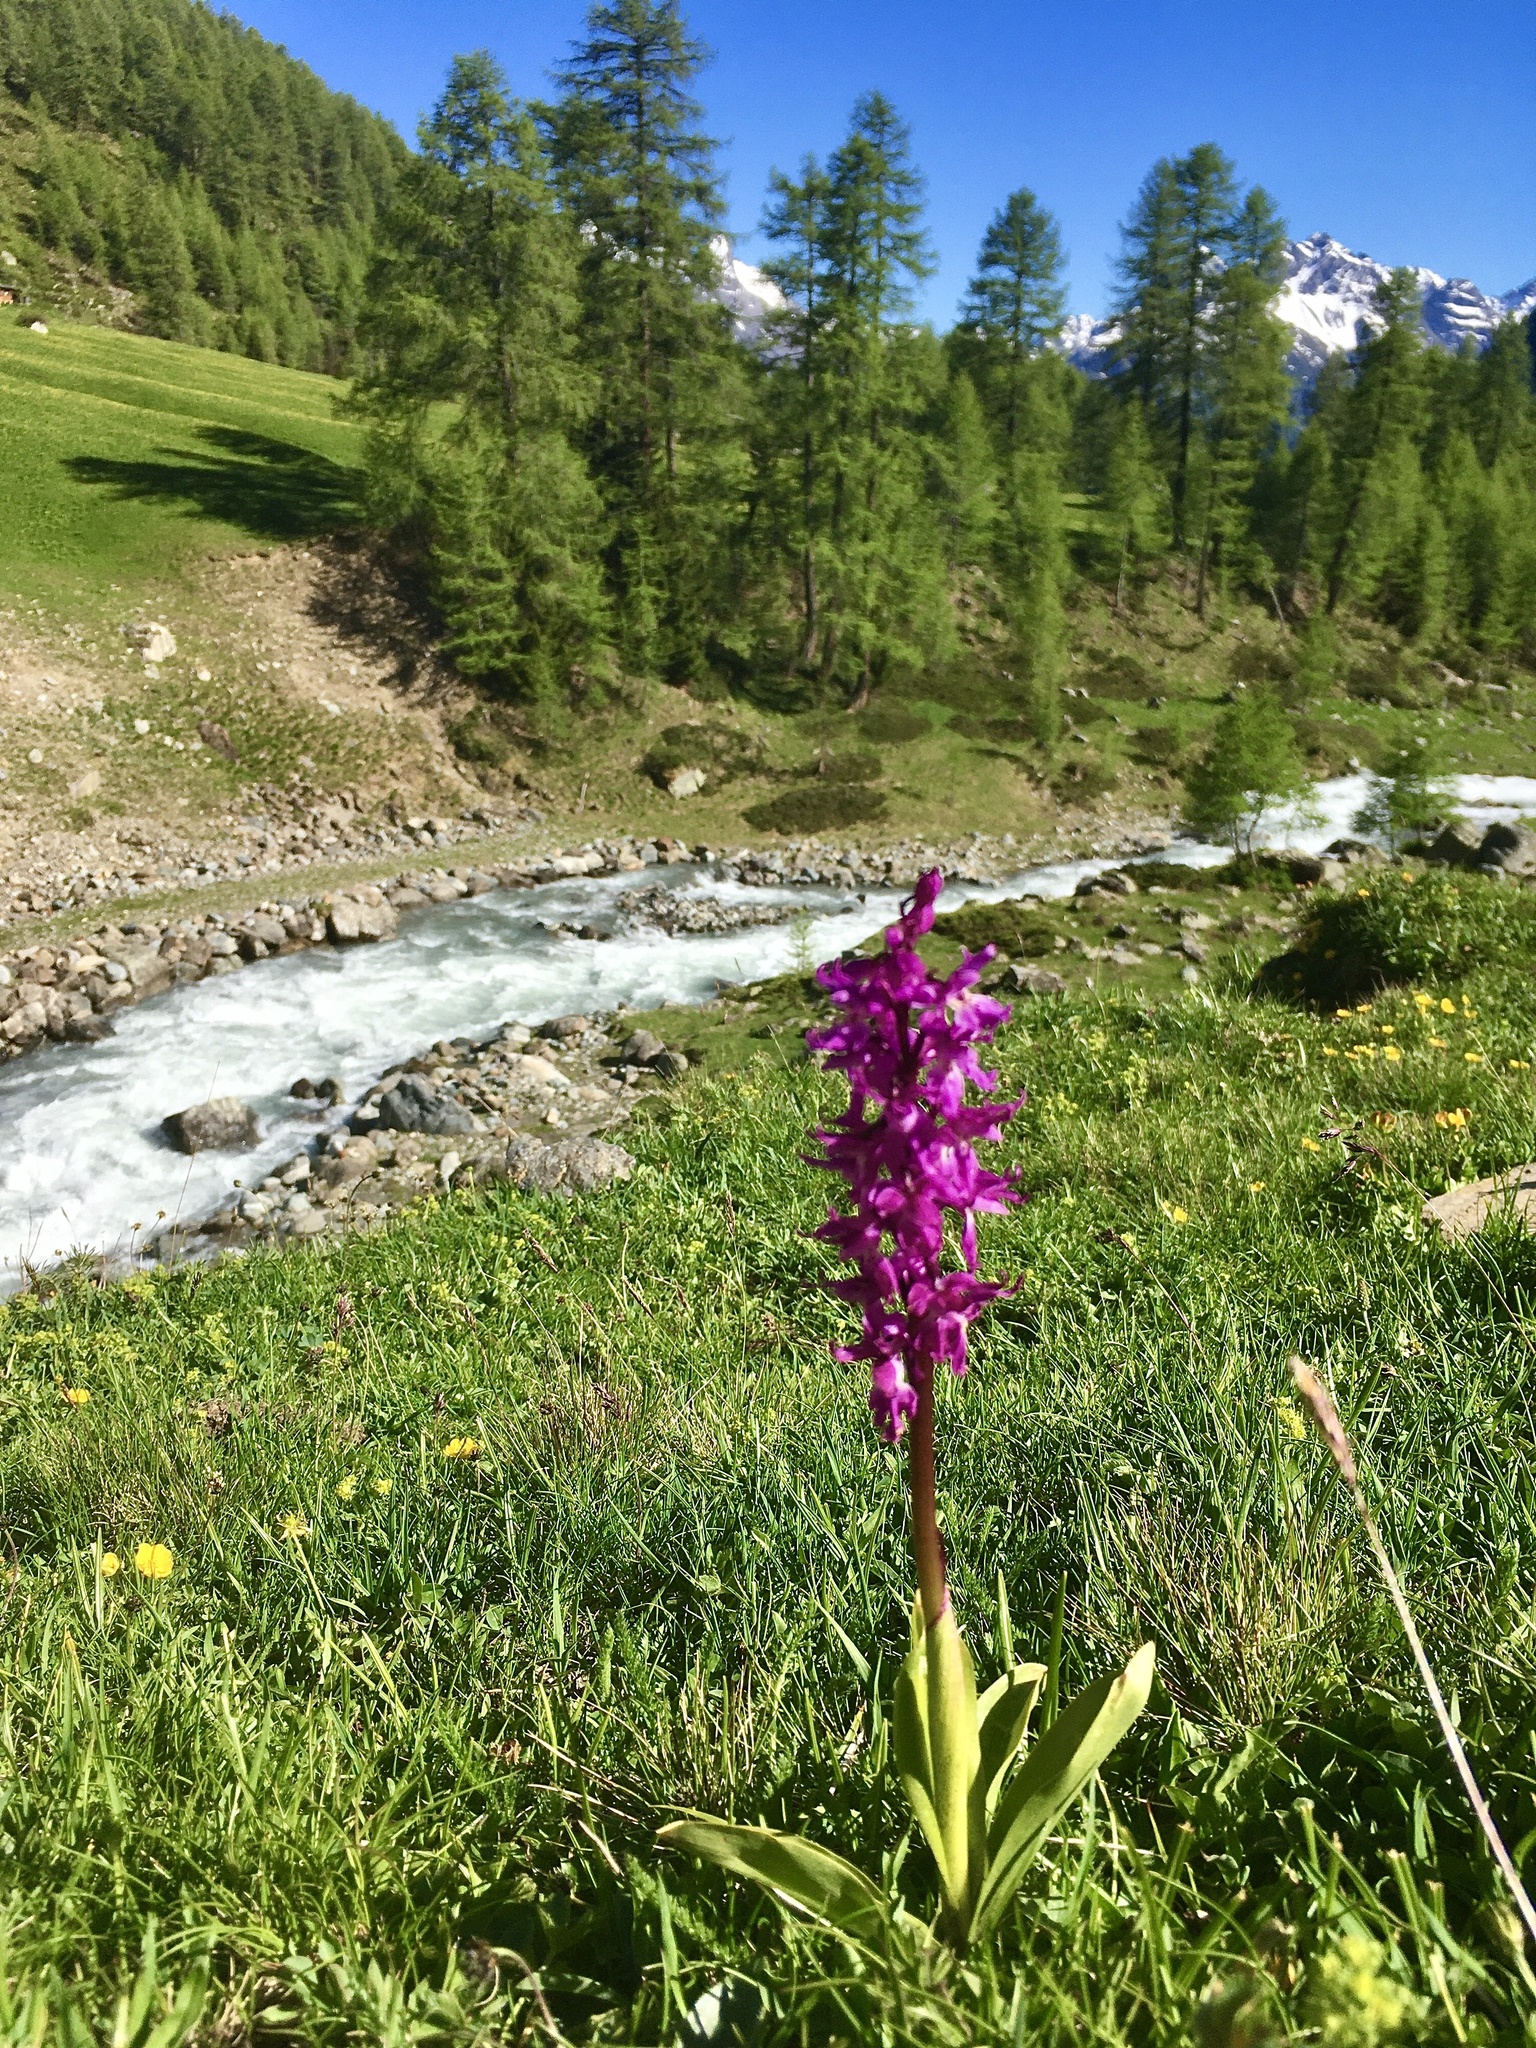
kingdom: Plantae
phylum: Tracheophyta
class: Liliopsida
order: Asparagales
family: Orchidaceae
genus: Orchis
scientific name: Orchis mascula
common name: Early-purple orchid
